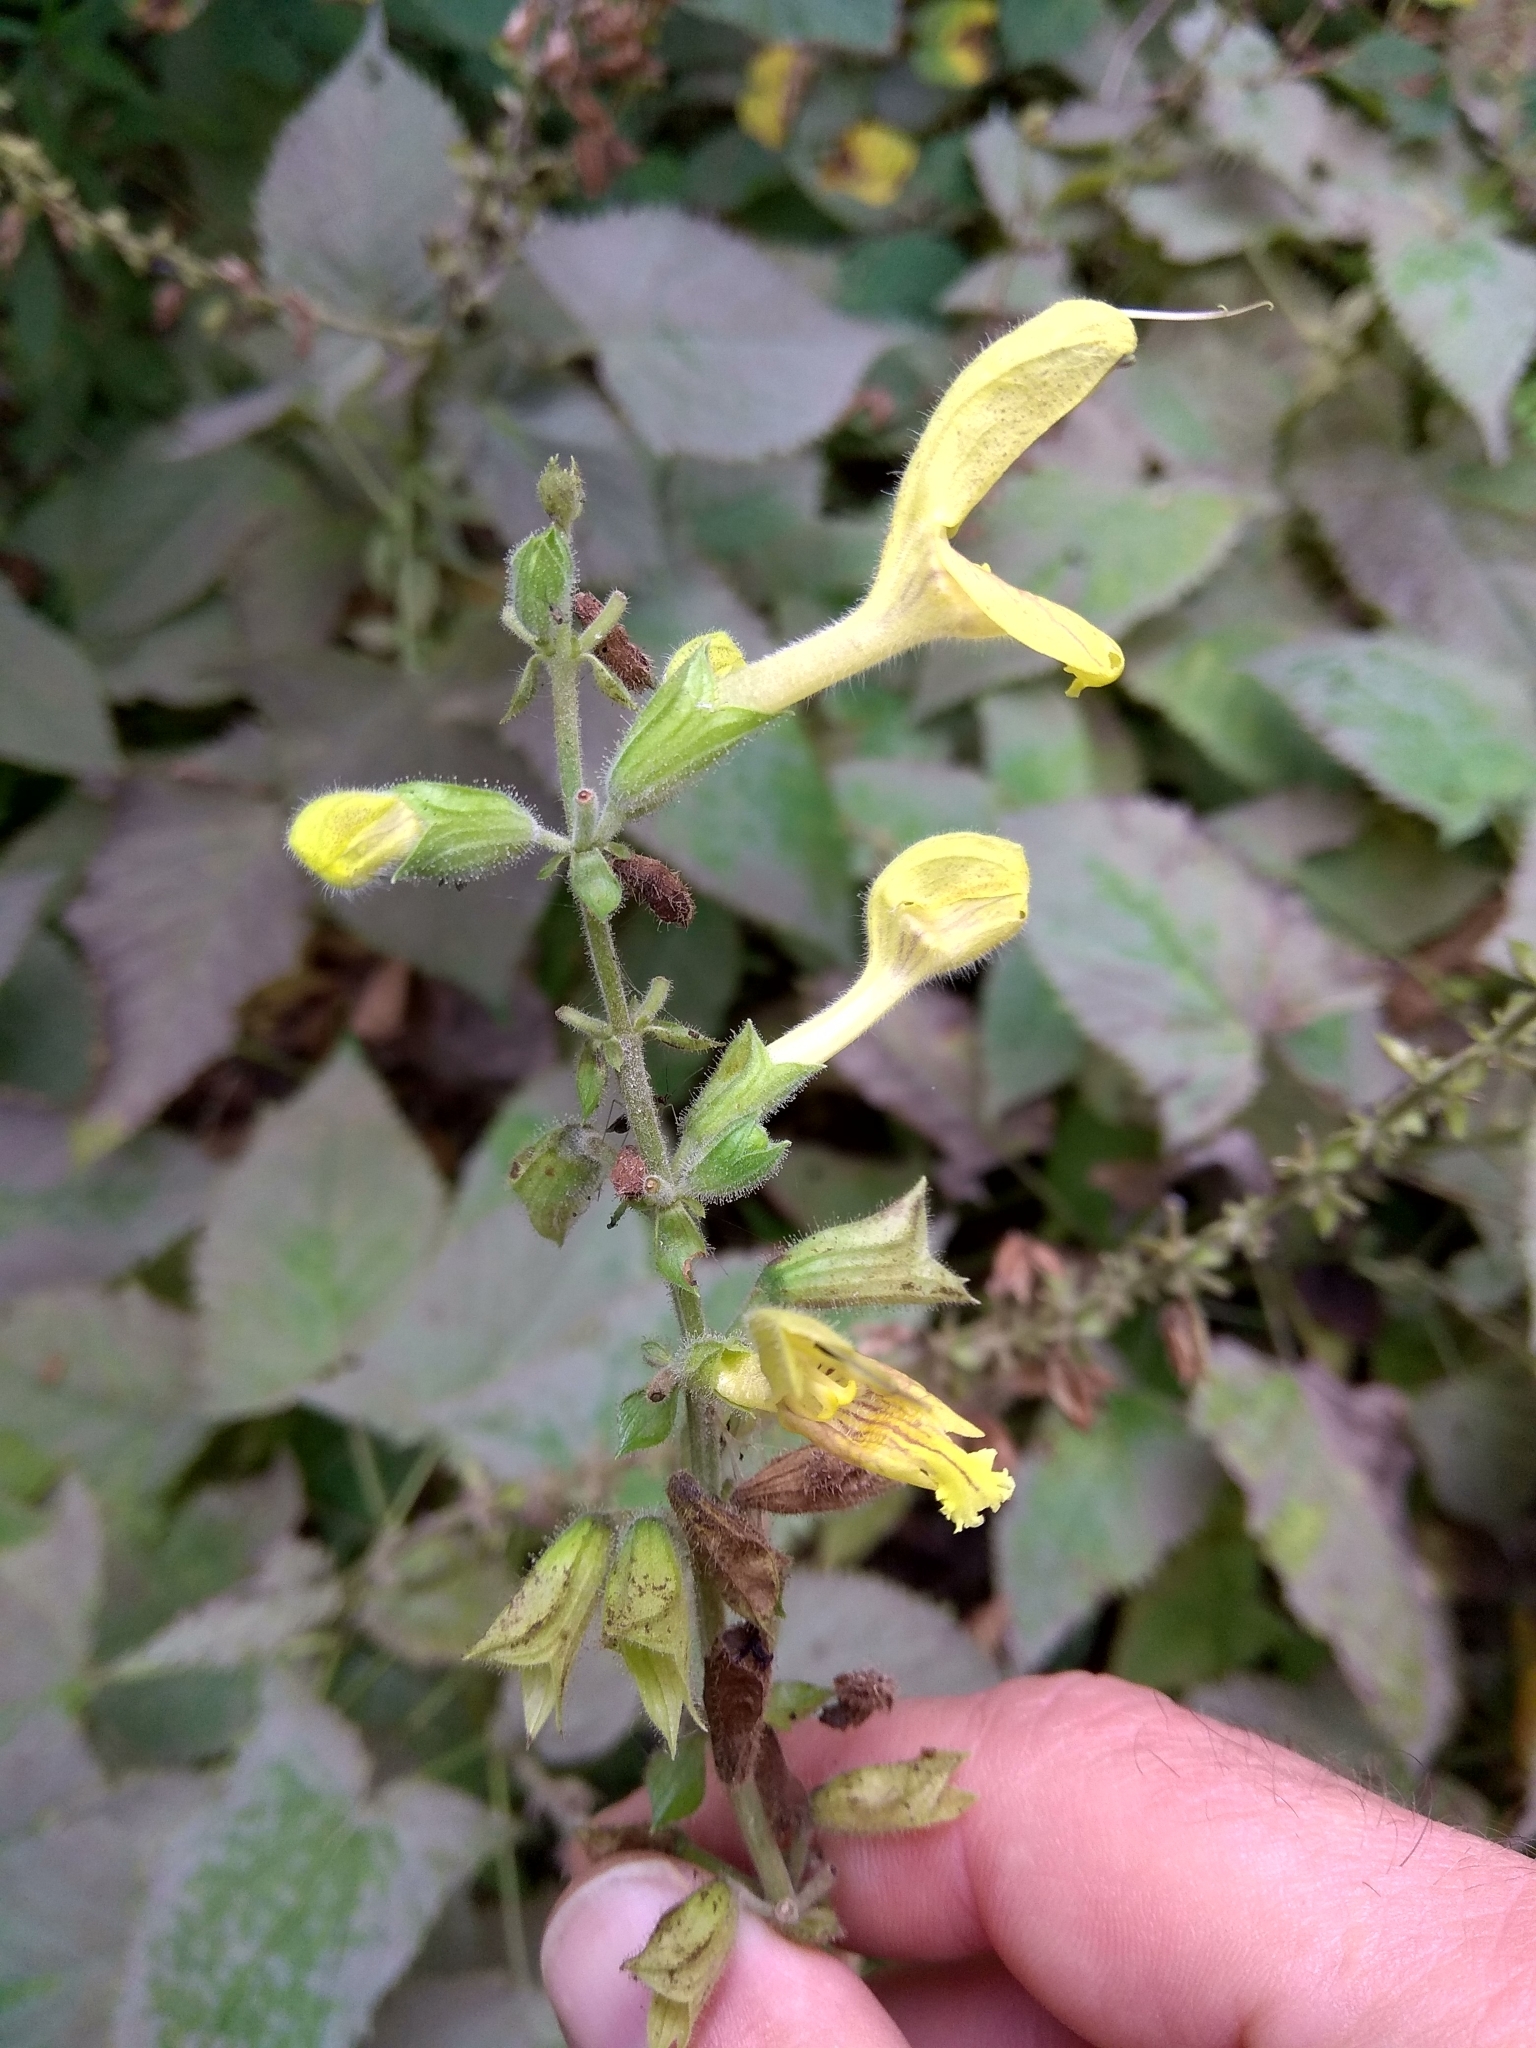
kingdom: Plantae
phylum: Tracheophyta
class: Magnoliopsida
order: Lamiales
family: Lamiaceae
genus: Salvia
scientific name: Salvia glutinosa
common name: Sticky clary
